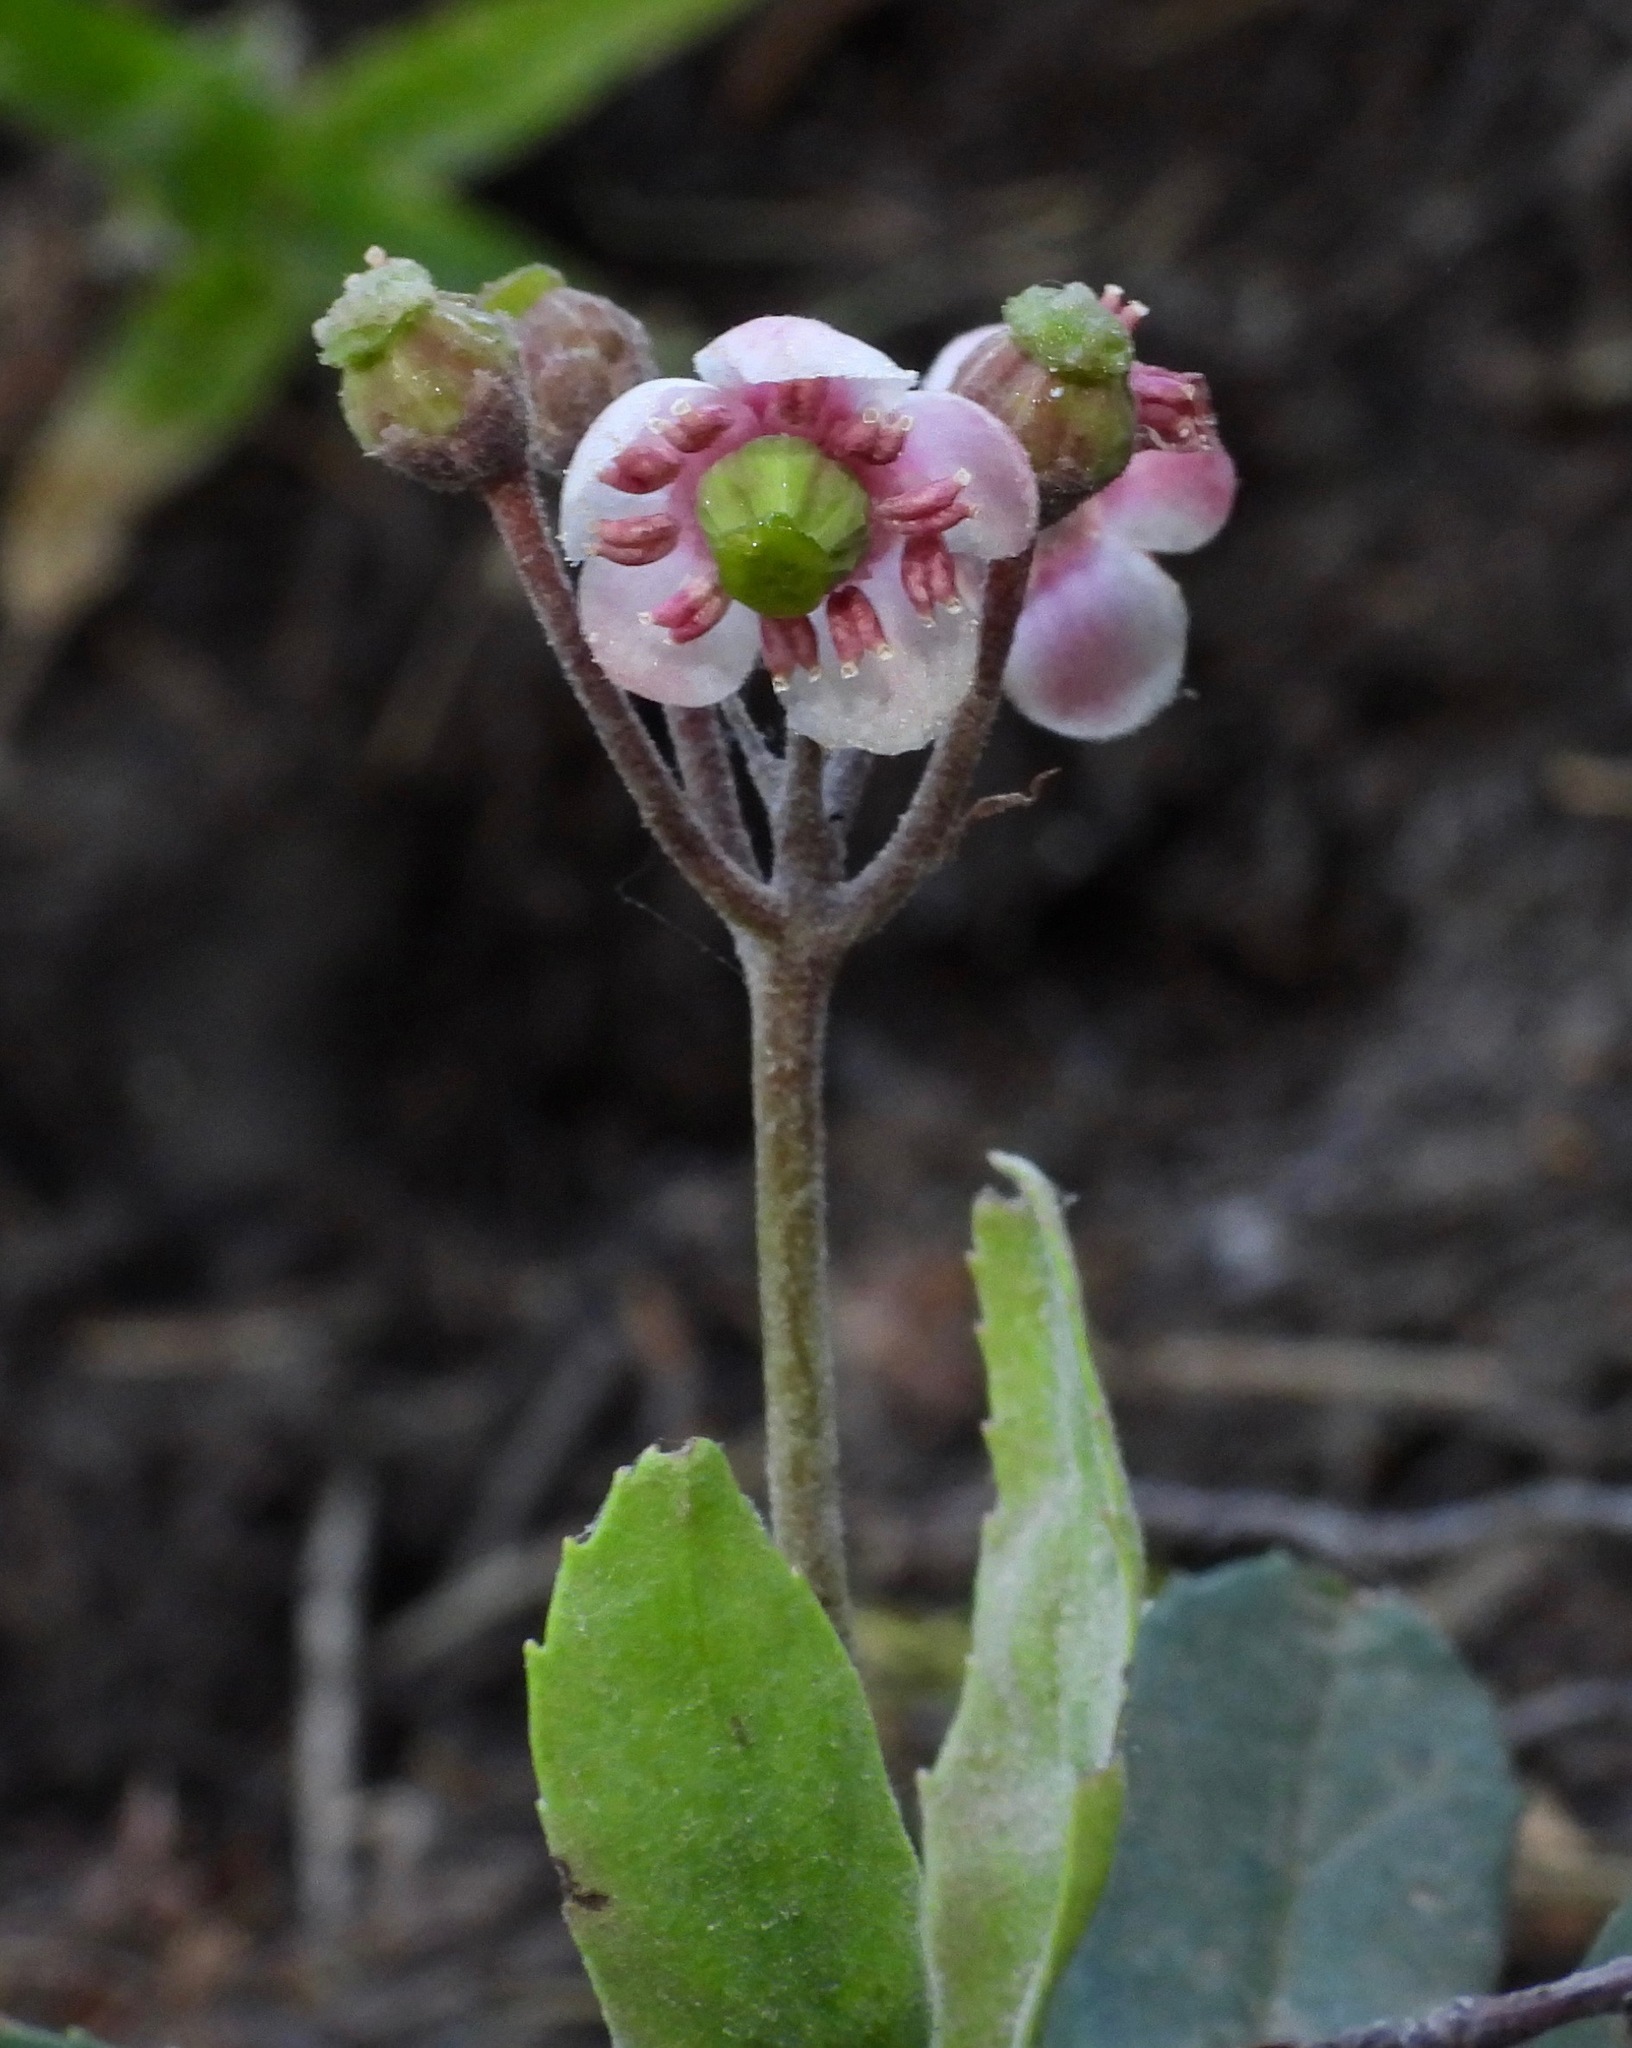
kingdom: Plantae
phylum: Tracheophyta
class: Magnoliopsida
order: Ericales
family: Ericaceae
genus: Chimaphila
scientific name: Chimaphila umbellata
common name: Pipsissewa
